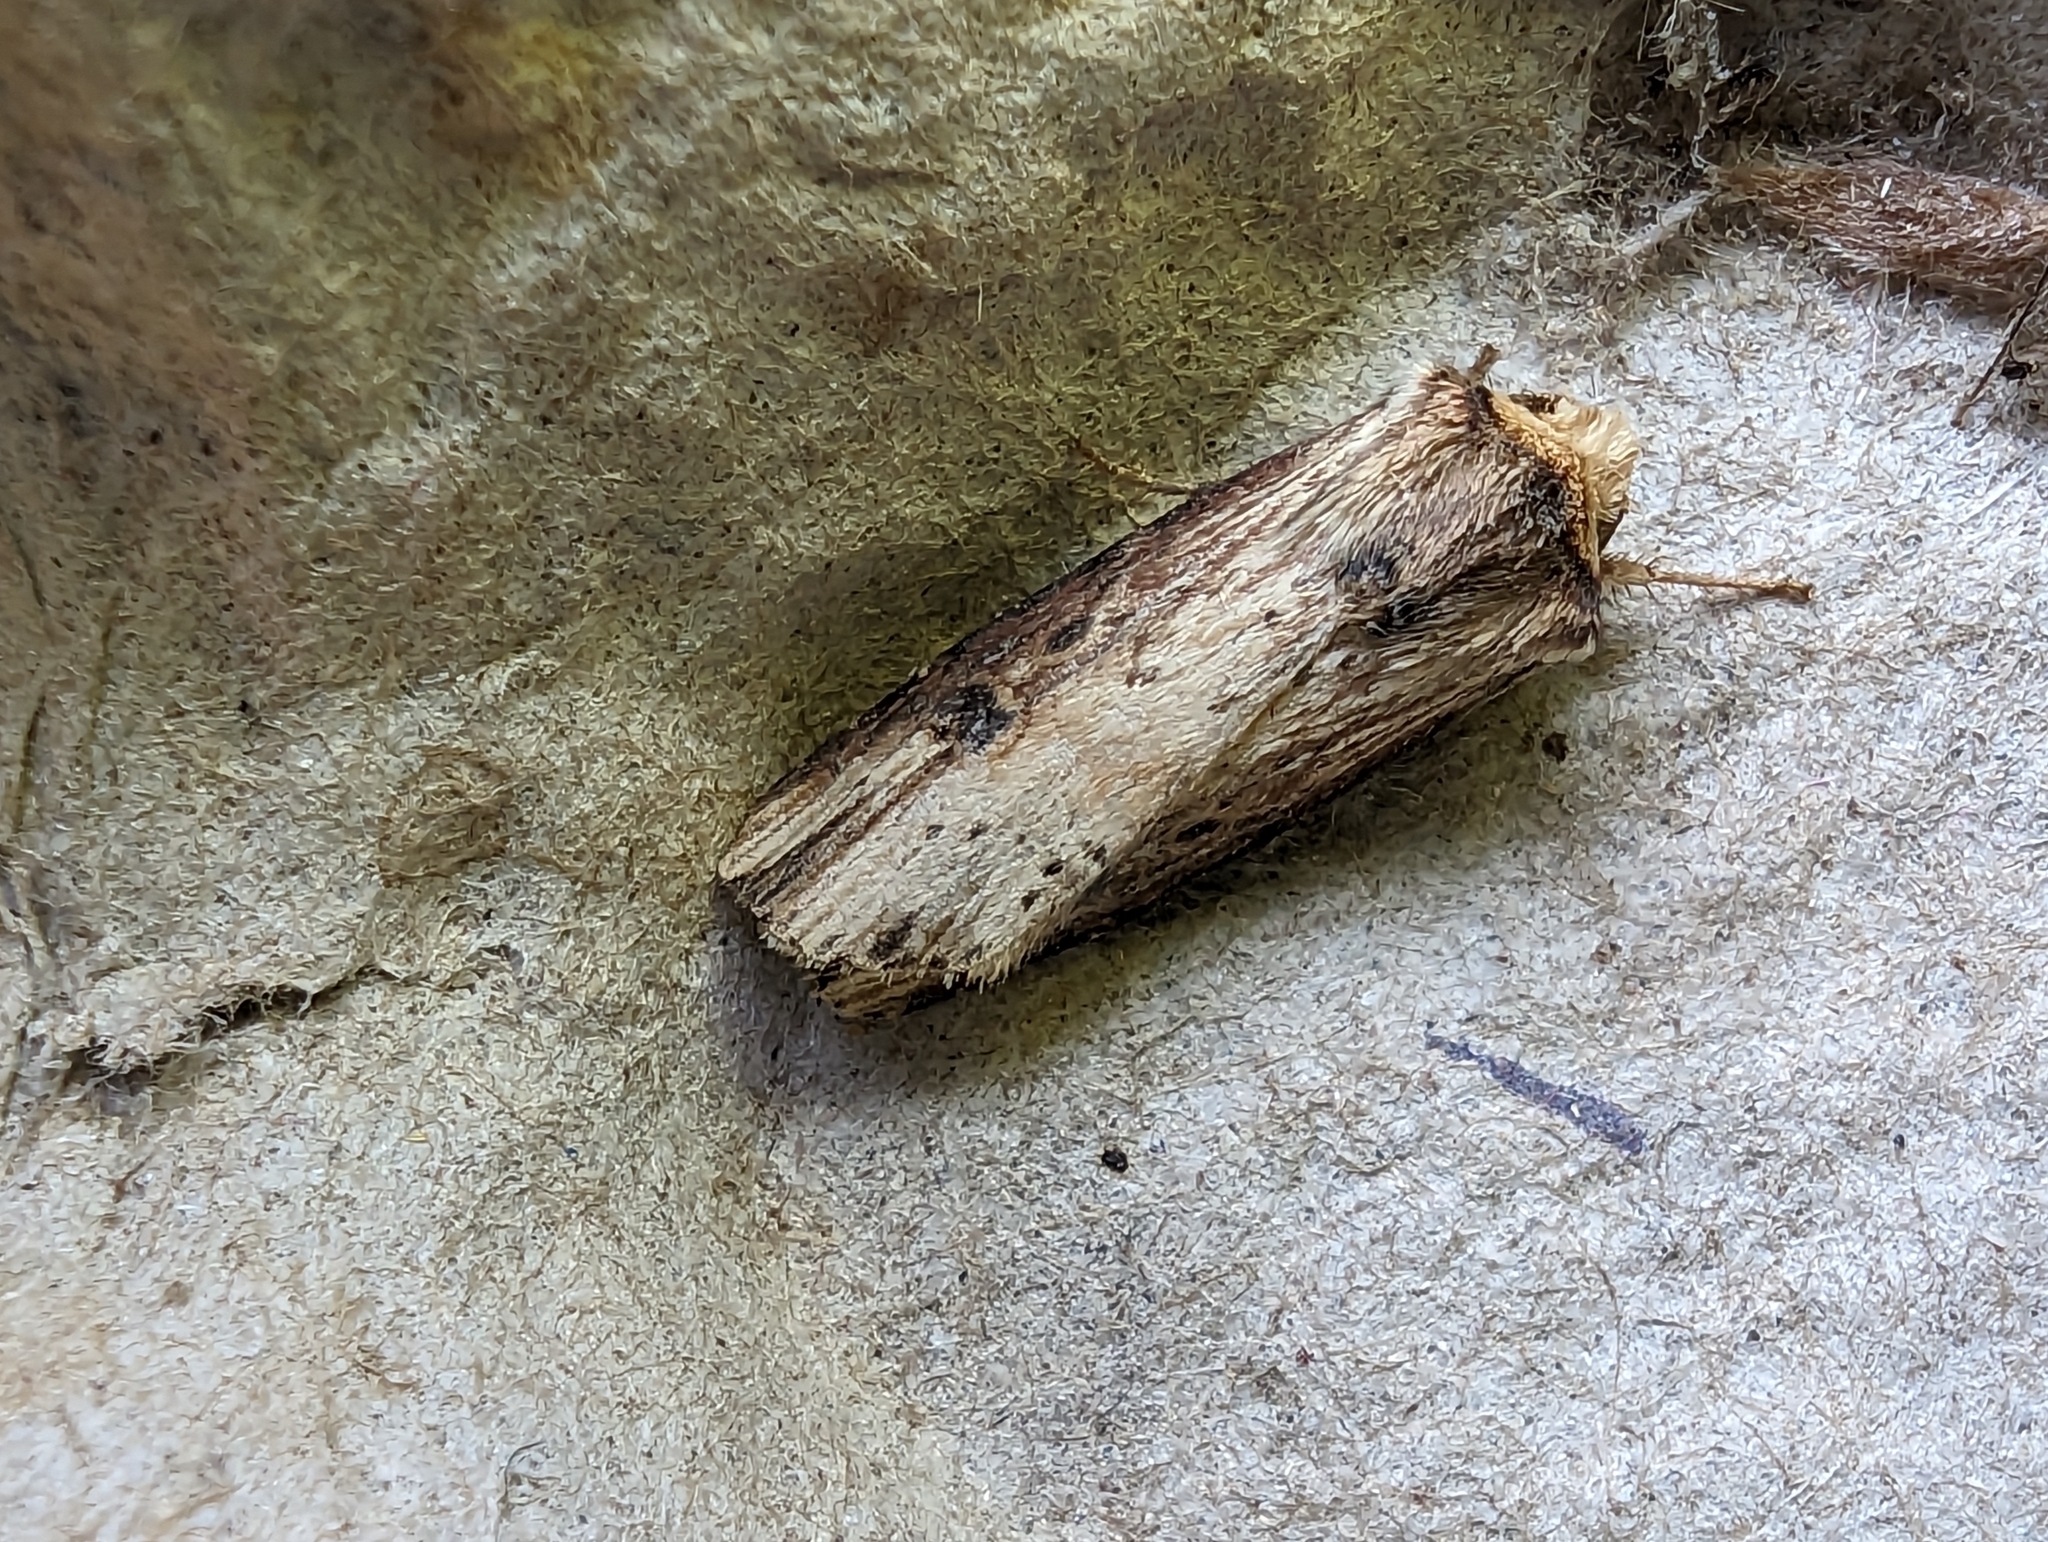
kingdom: Animalia
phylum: Arthropoda
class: Insecta
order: Lepidoptera
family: Noctuidae
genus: Axylia
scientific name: Axylia putris
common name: Flame
